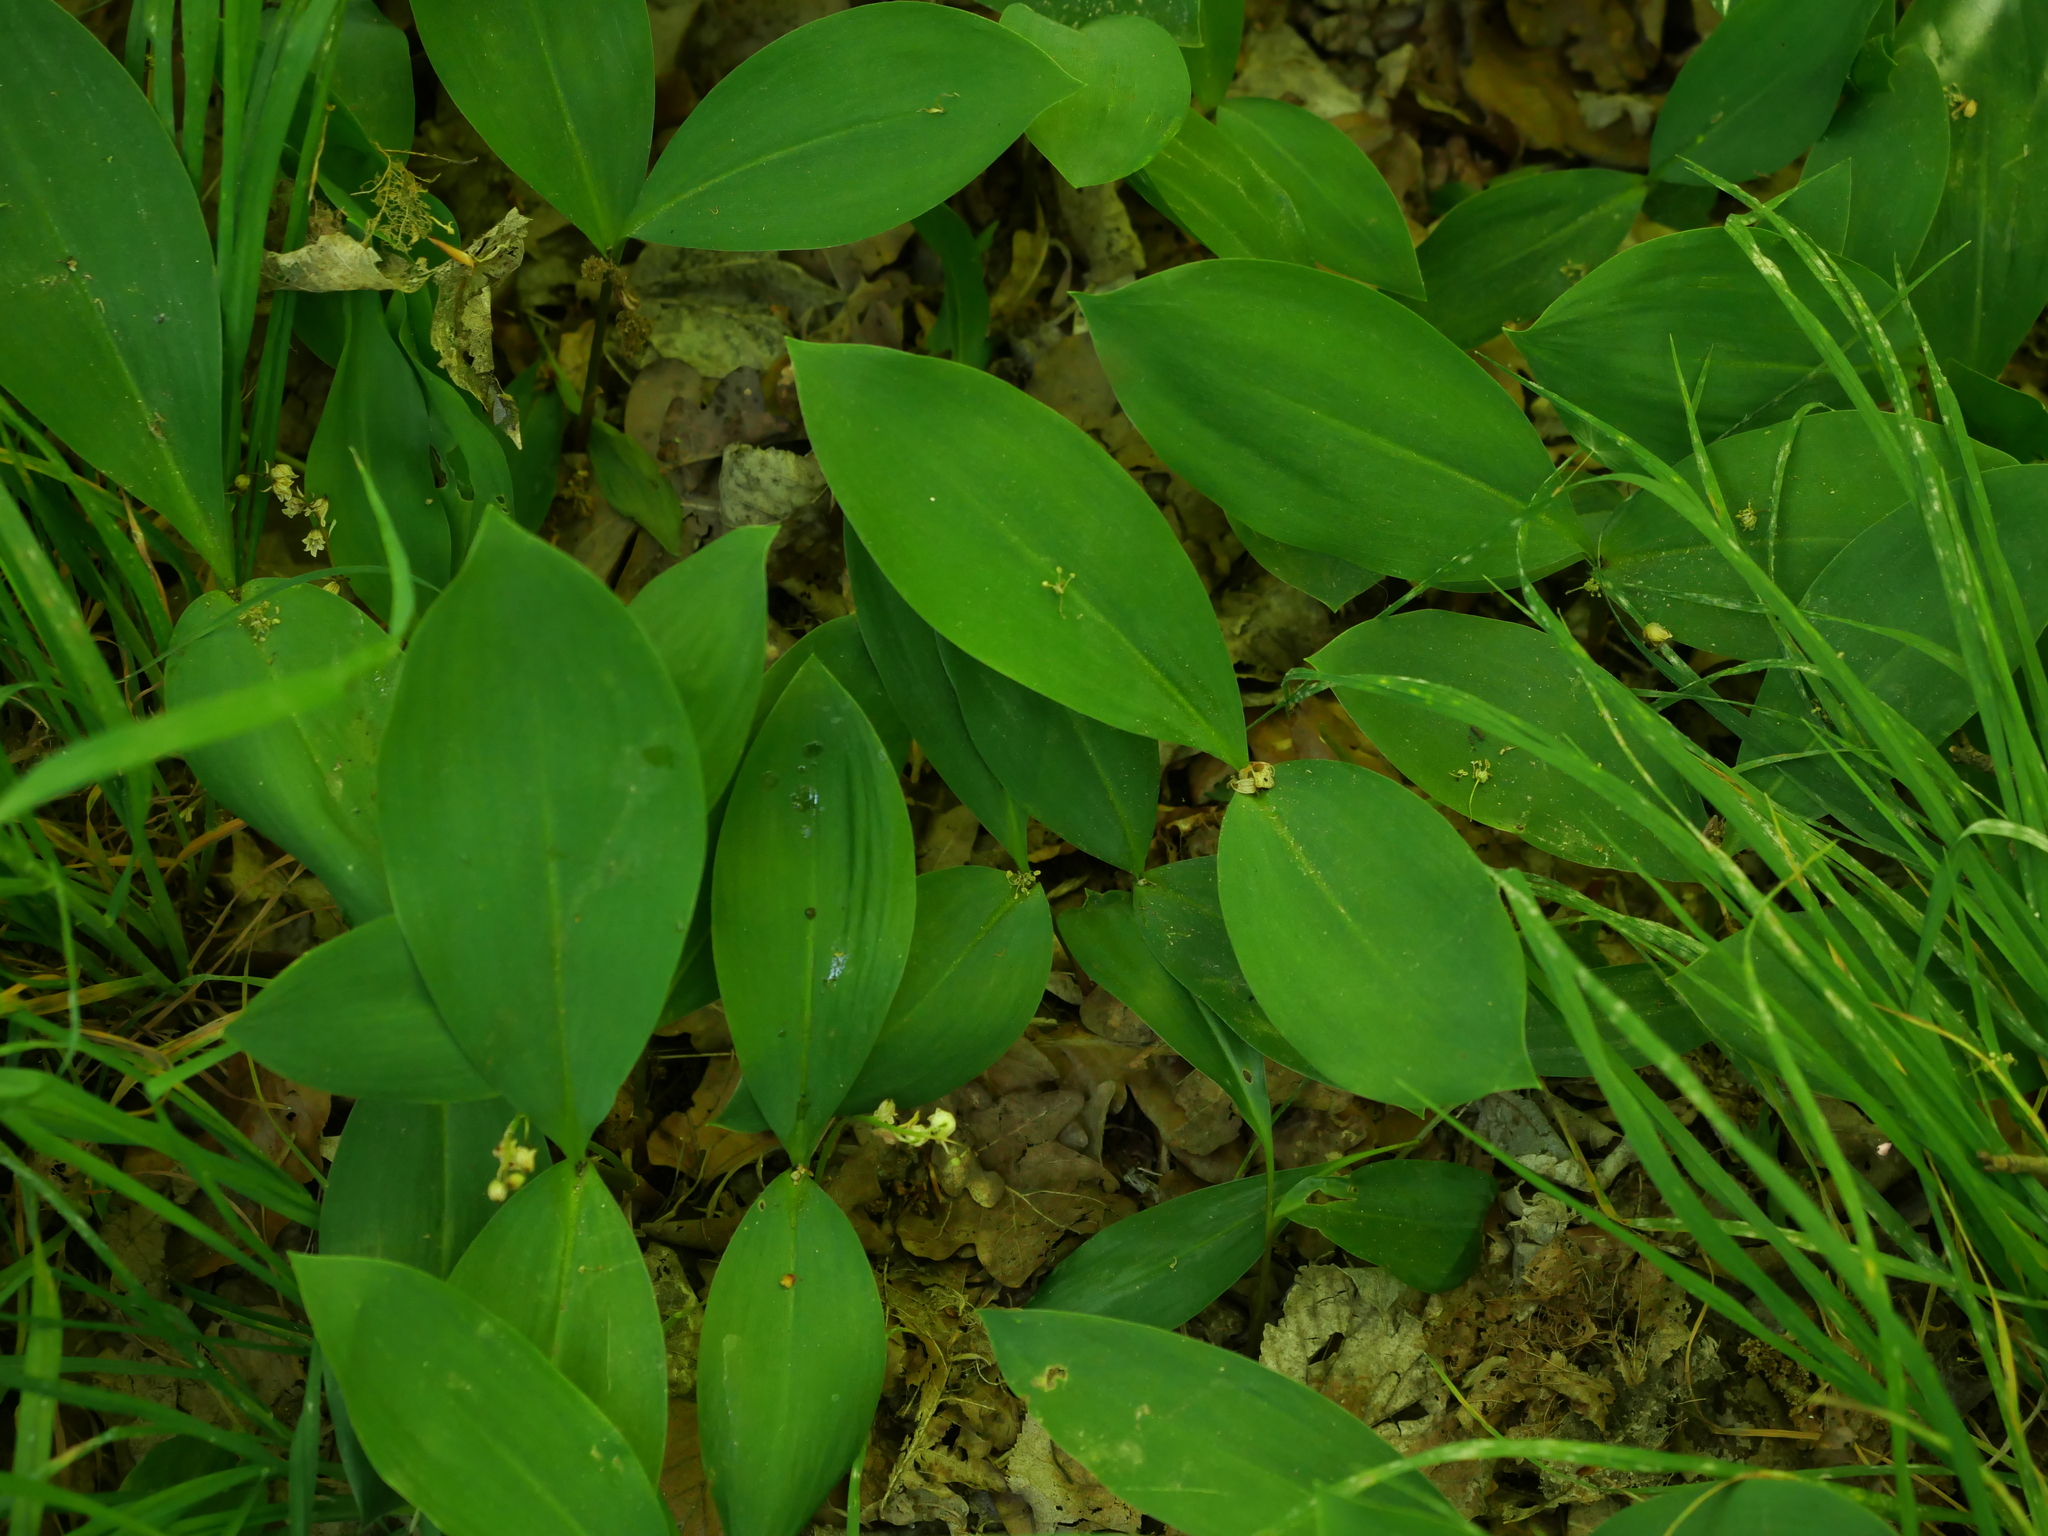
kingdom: Plantae
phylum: Tracheophyta
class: Liliopsida
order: Asparagales
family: Asparagaceae
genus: Convallaria
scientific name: Convallaria majalis
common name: Lily-of-the-valley
